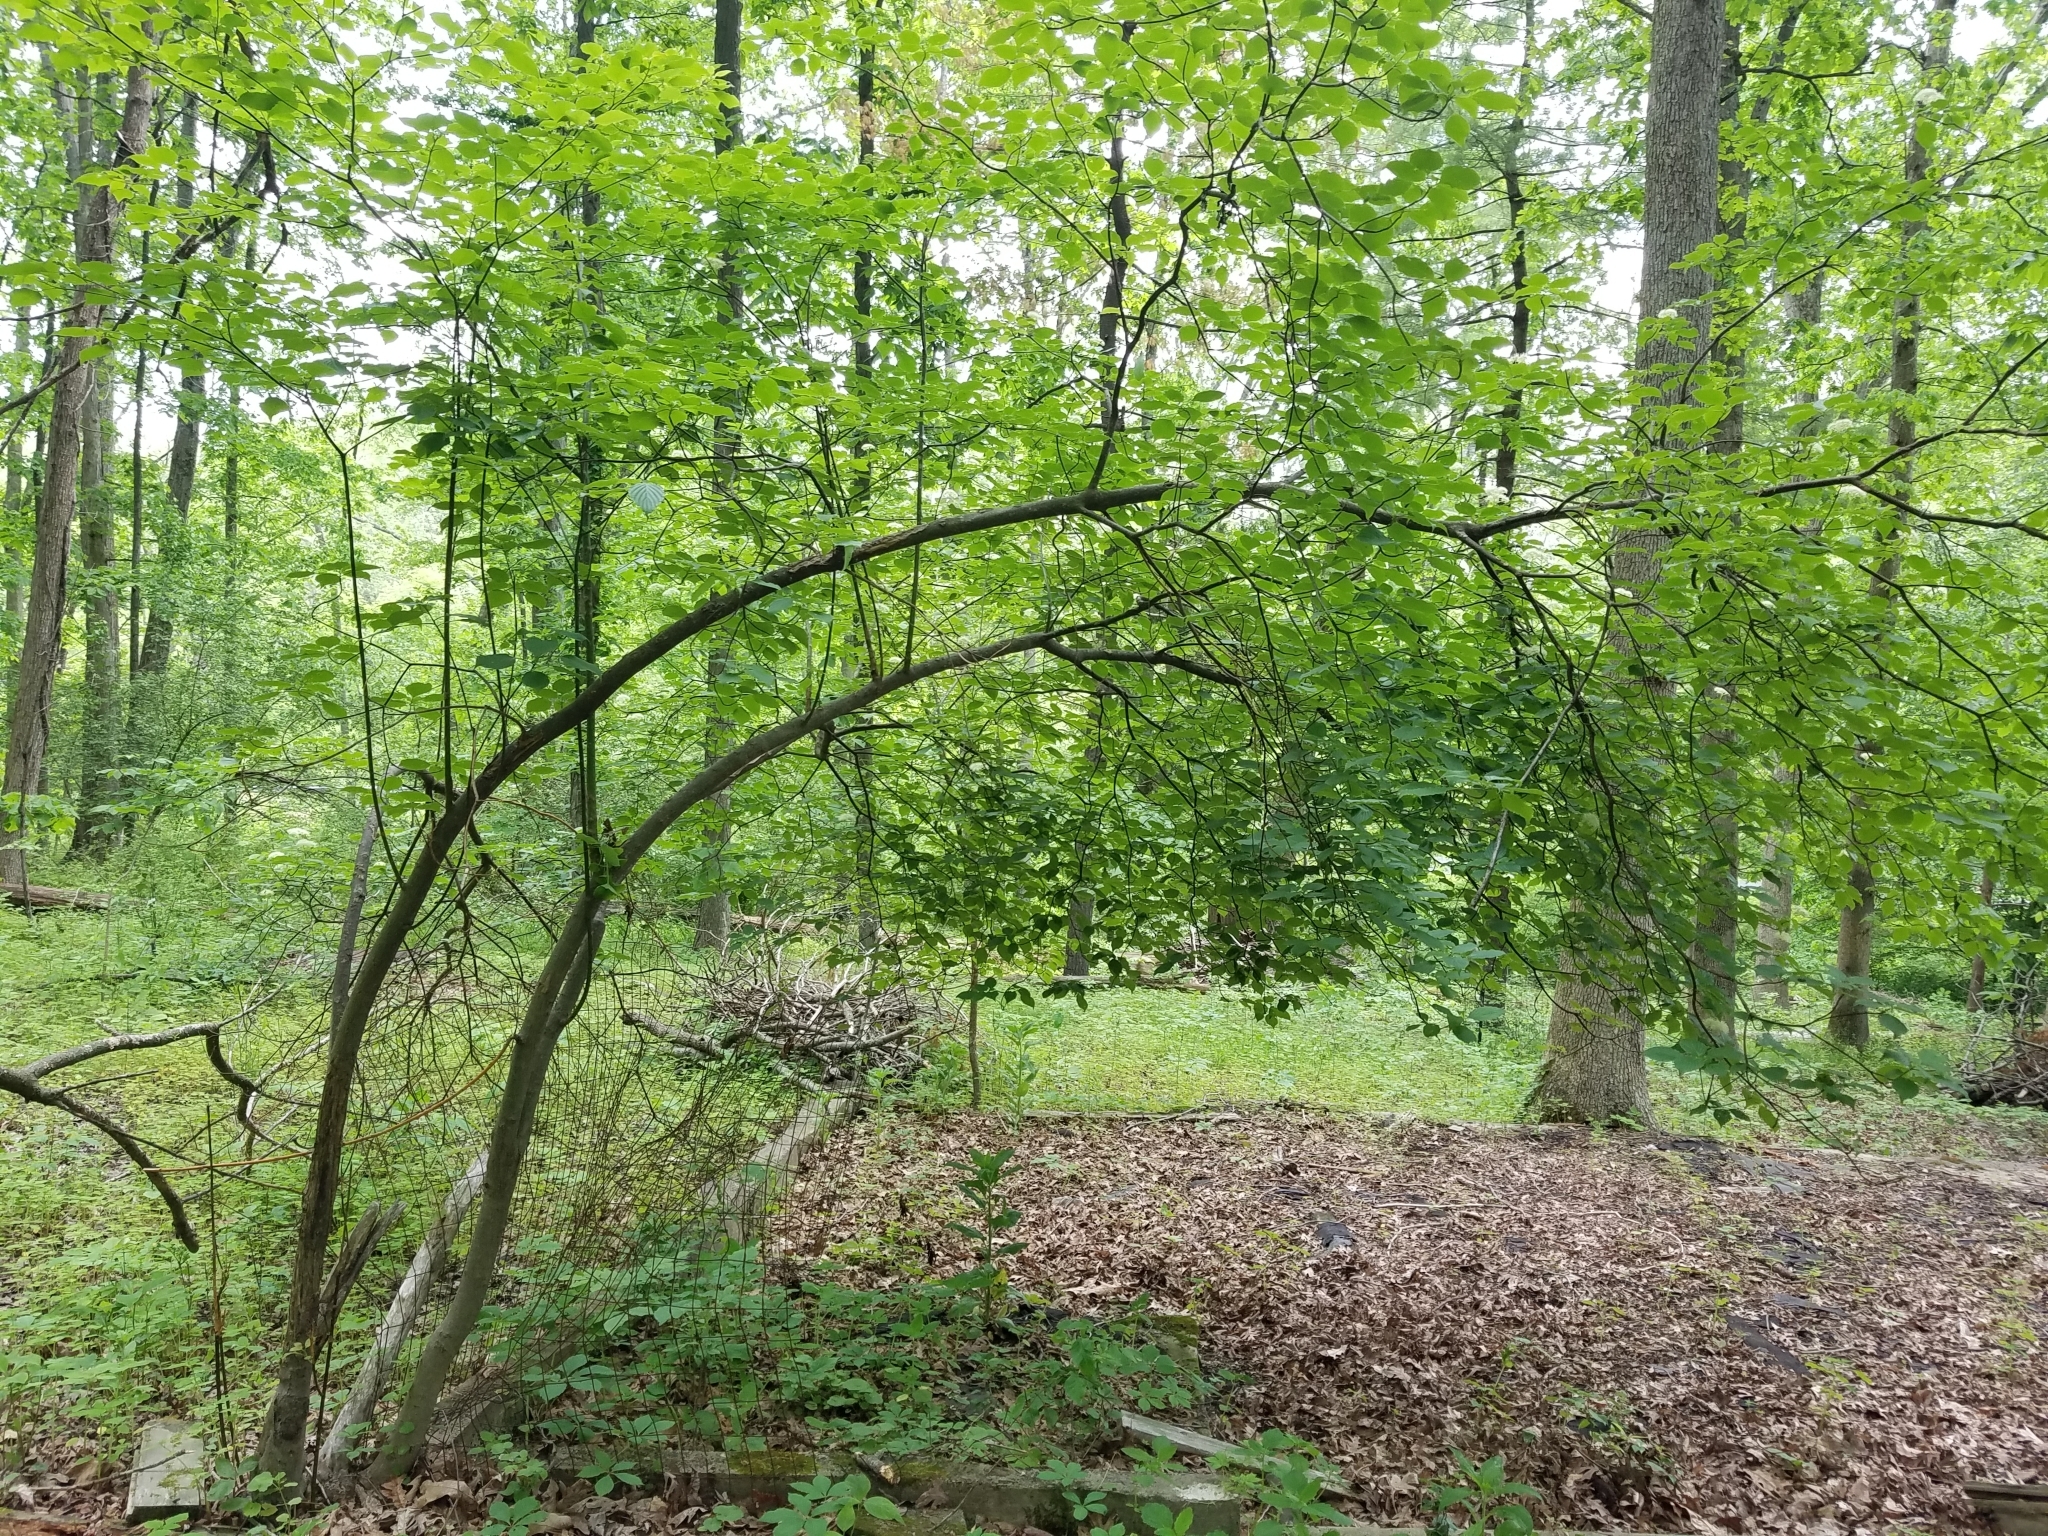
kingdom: Plantae
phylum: Tracheophyta
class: Magnoliopsida
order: Cornales
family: Cornaceae
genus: Cornus
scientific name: Cornus alternifolia
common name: Pagoda dogwood
